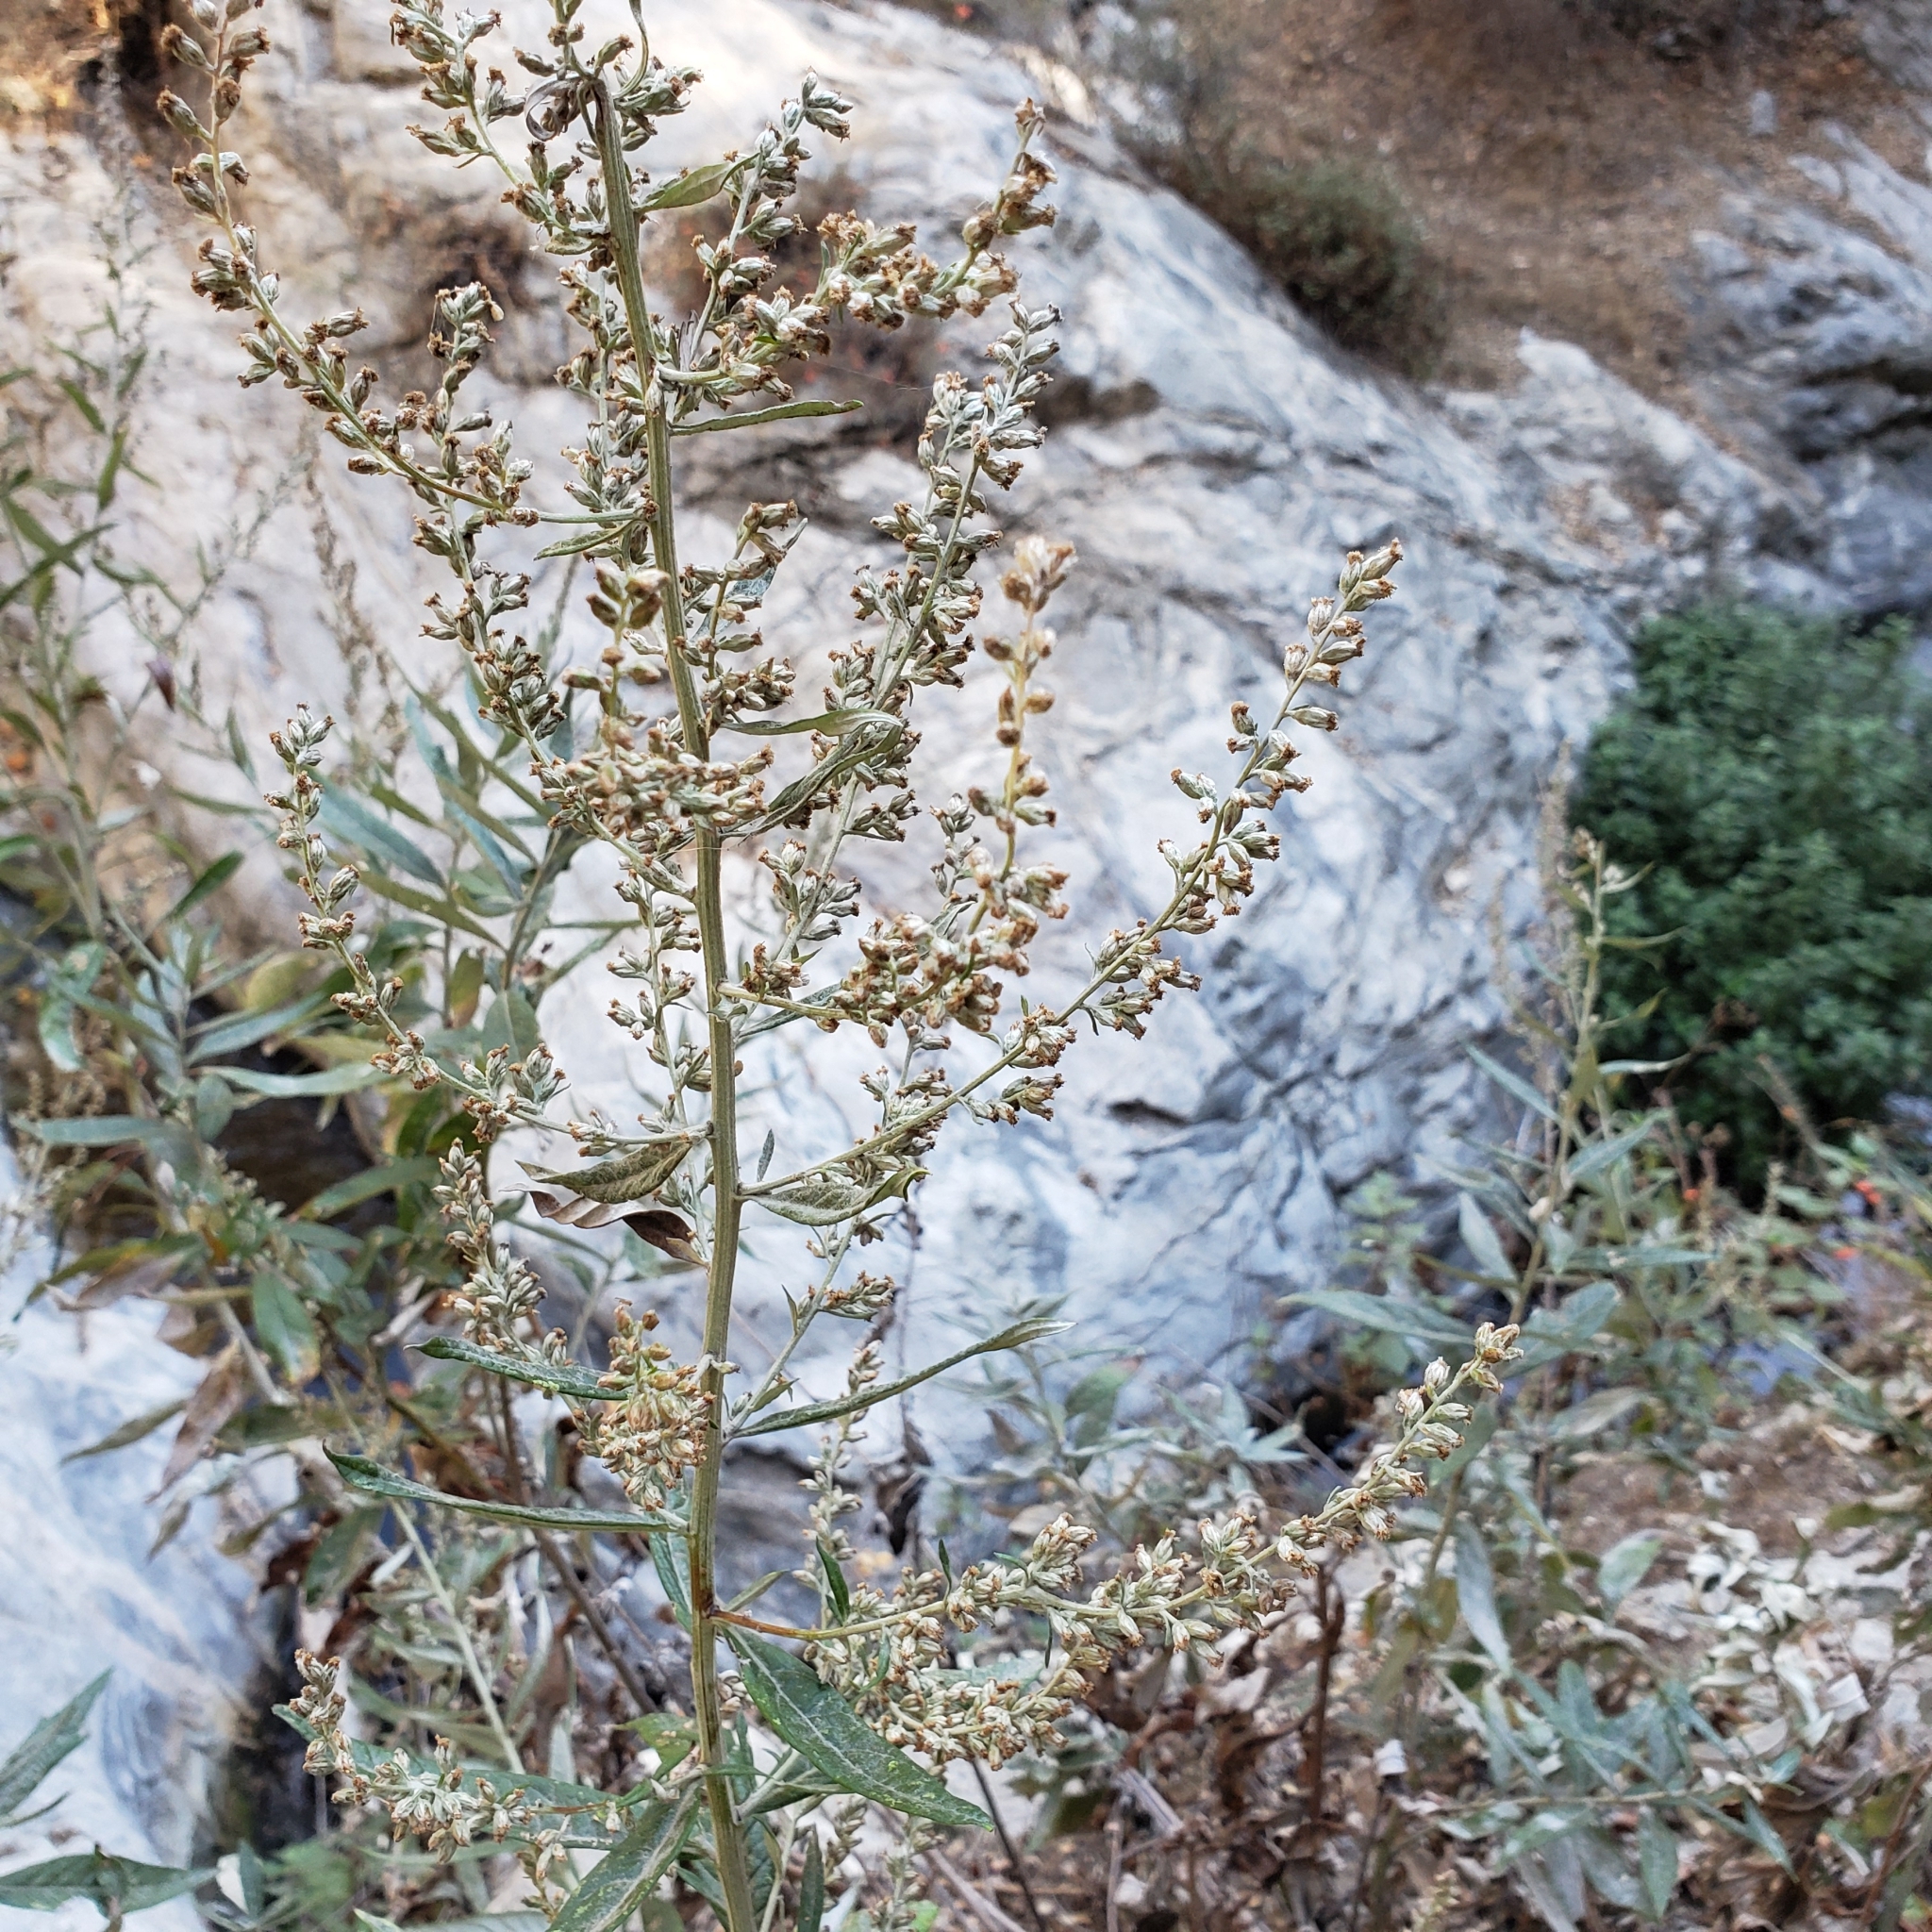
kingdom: Plantae
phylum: Tracheophyta
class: Magnoliopsida
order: Asterales
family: Asteraceae
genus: Artemisia
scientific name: Artemisia douglasiana
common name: Northwest mugwort
